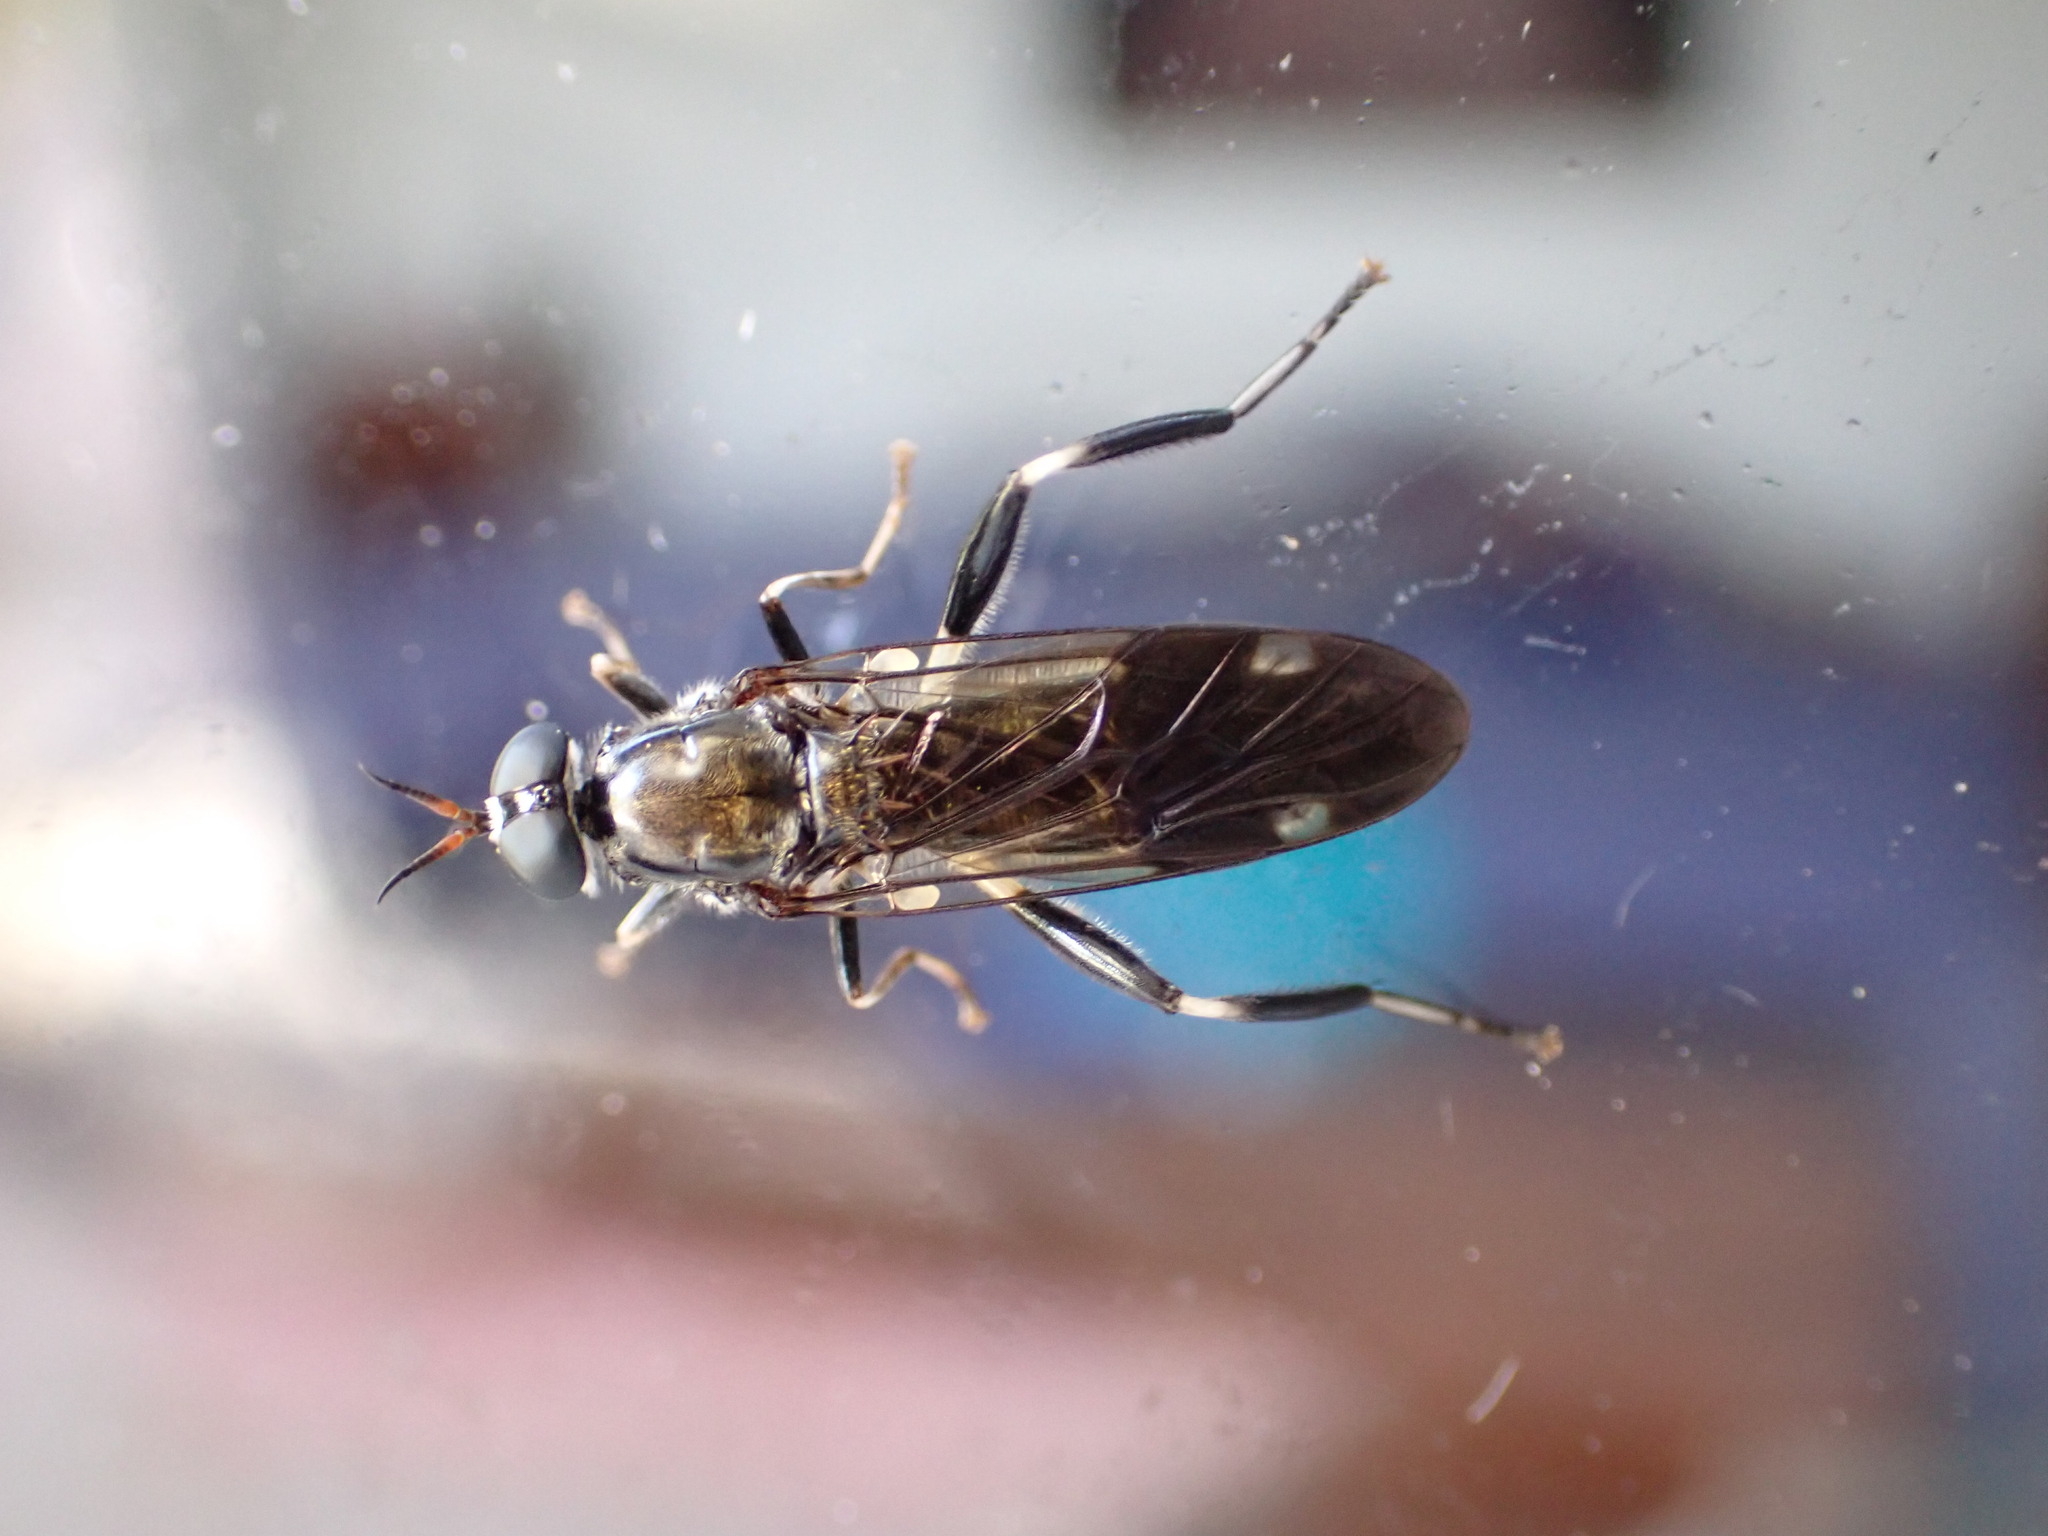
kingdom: Animalia
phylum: Arthropoda
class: Insecta
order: Diptera
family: Stratiomyidae
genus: Exaireta
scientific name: Exaireta spinigera
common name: Blue soldier fly
